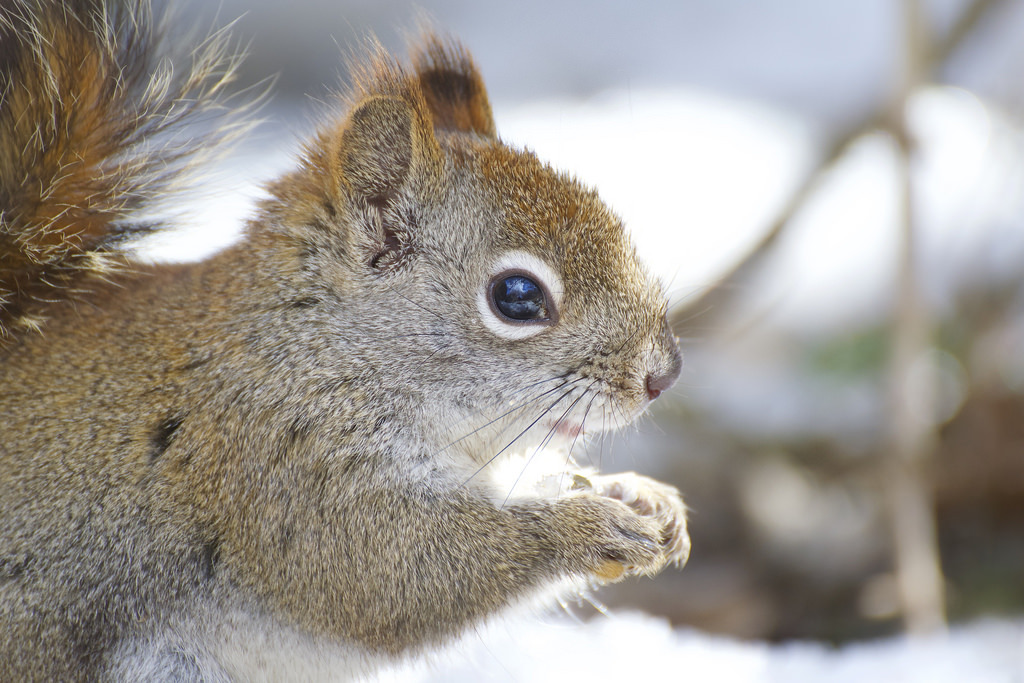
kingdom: Animalia
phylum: Chordata
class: Mammalia
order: Rodentia
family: Sciuridae
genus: Tamiasciurus
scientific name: Tamiasciurus hudsonicus
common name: Red squirrel
